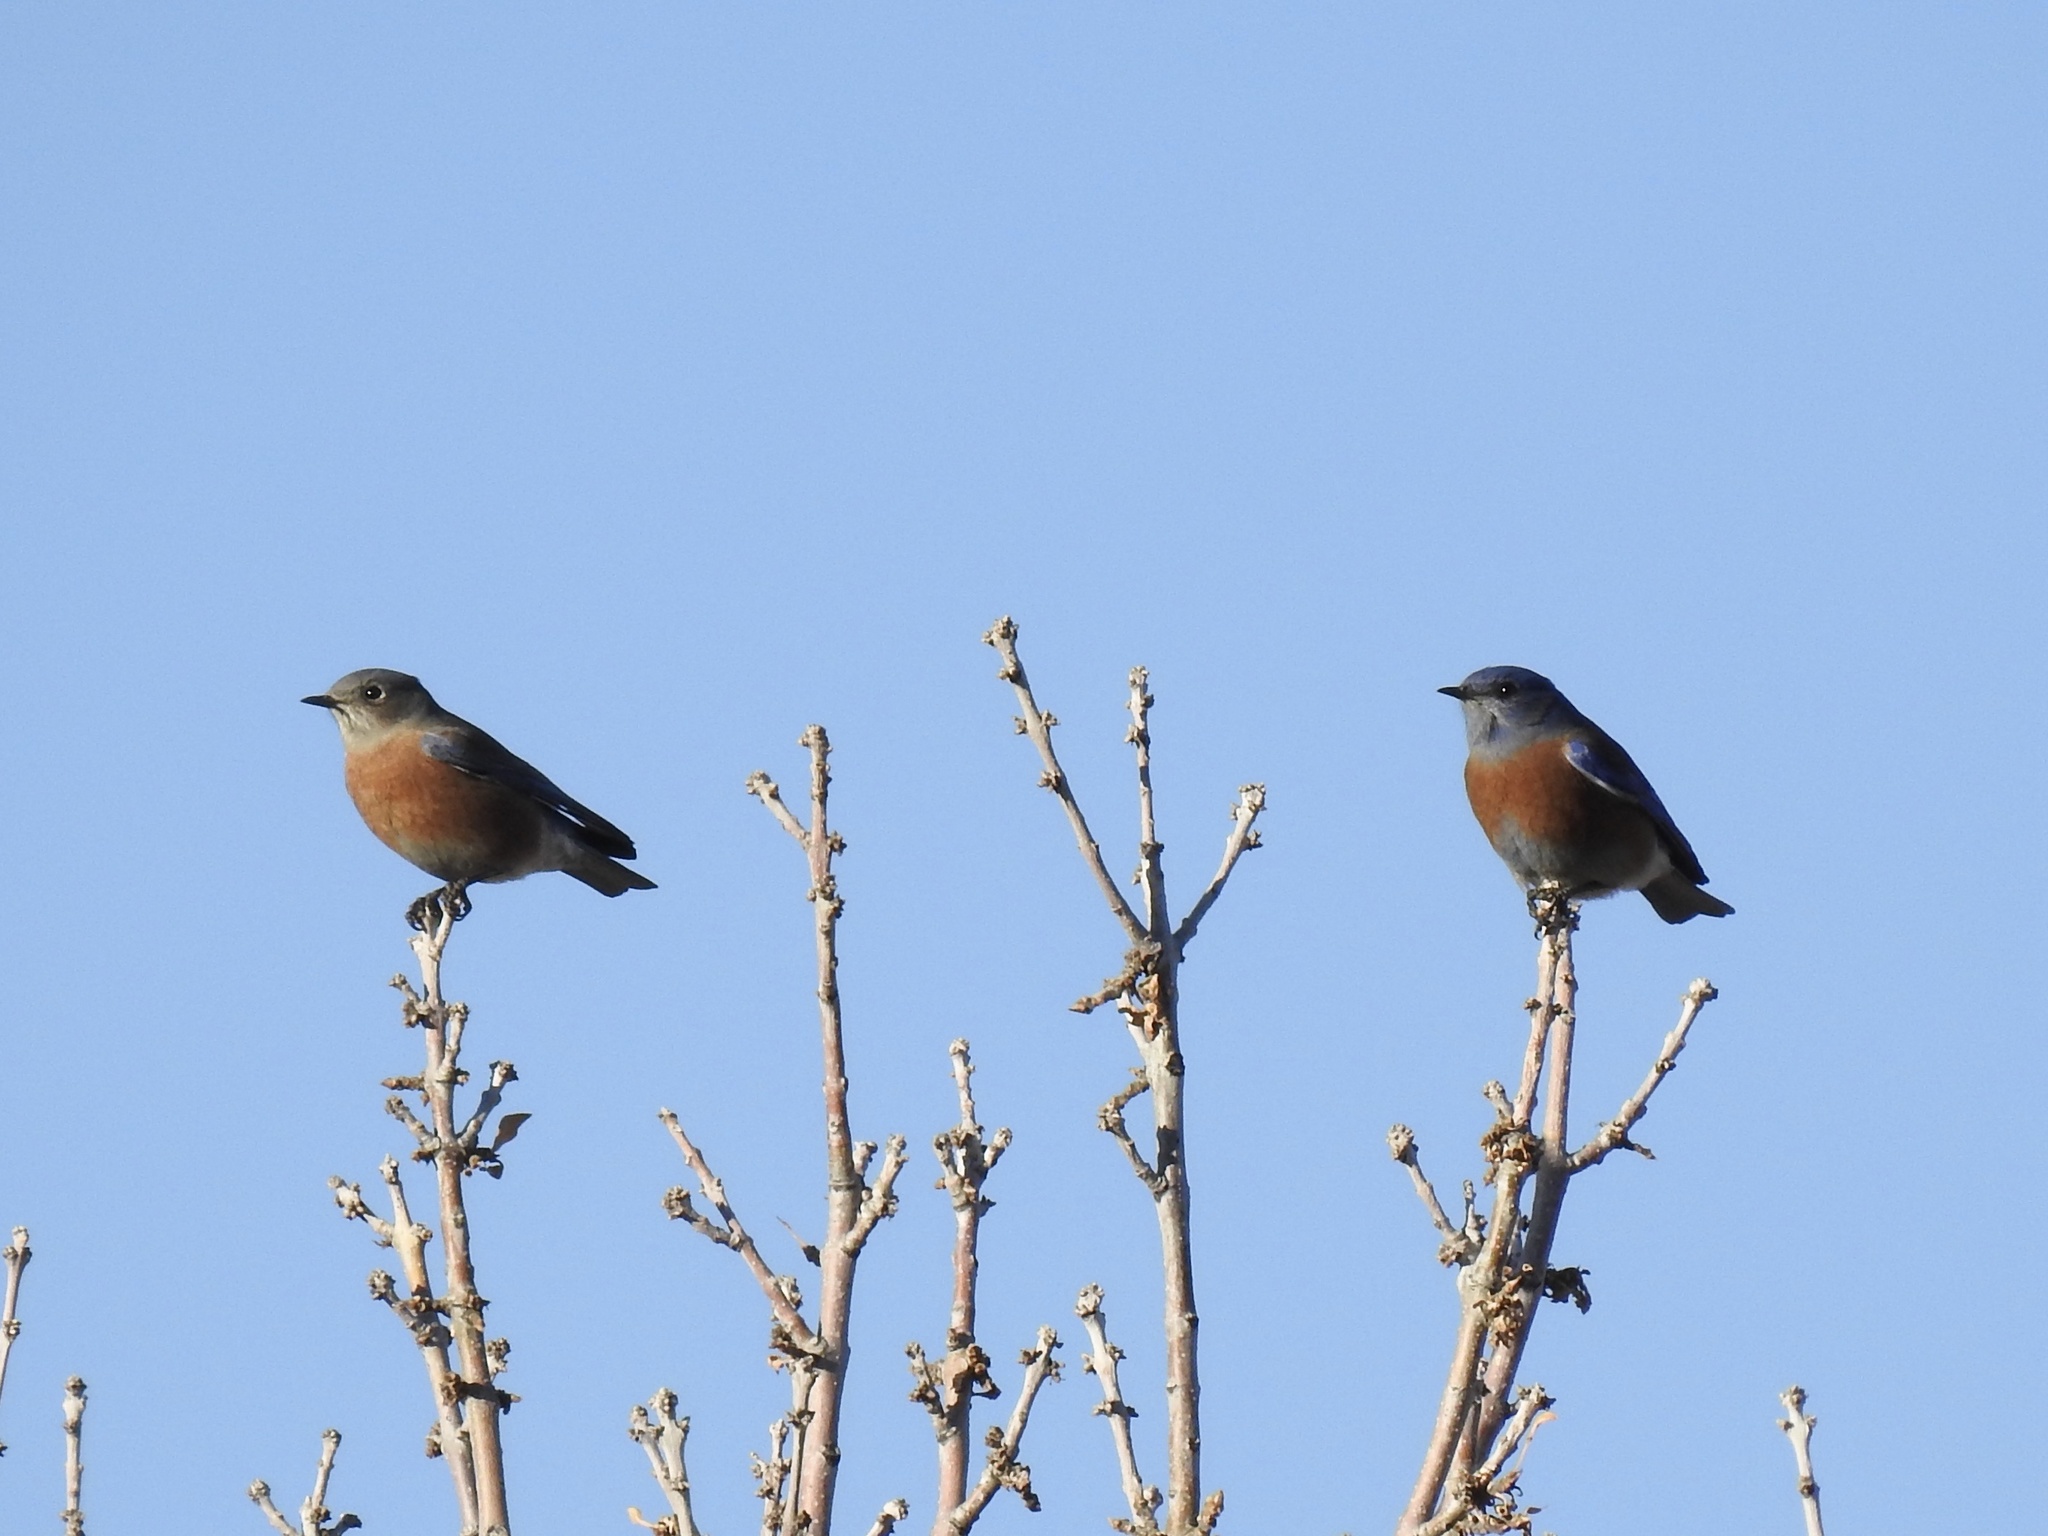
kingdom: Animalia
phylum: Chordata
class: Aves
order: Passeriformes
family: Turdidae
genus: Sialia
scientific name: Sialia mexicana
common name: Western bluebird
